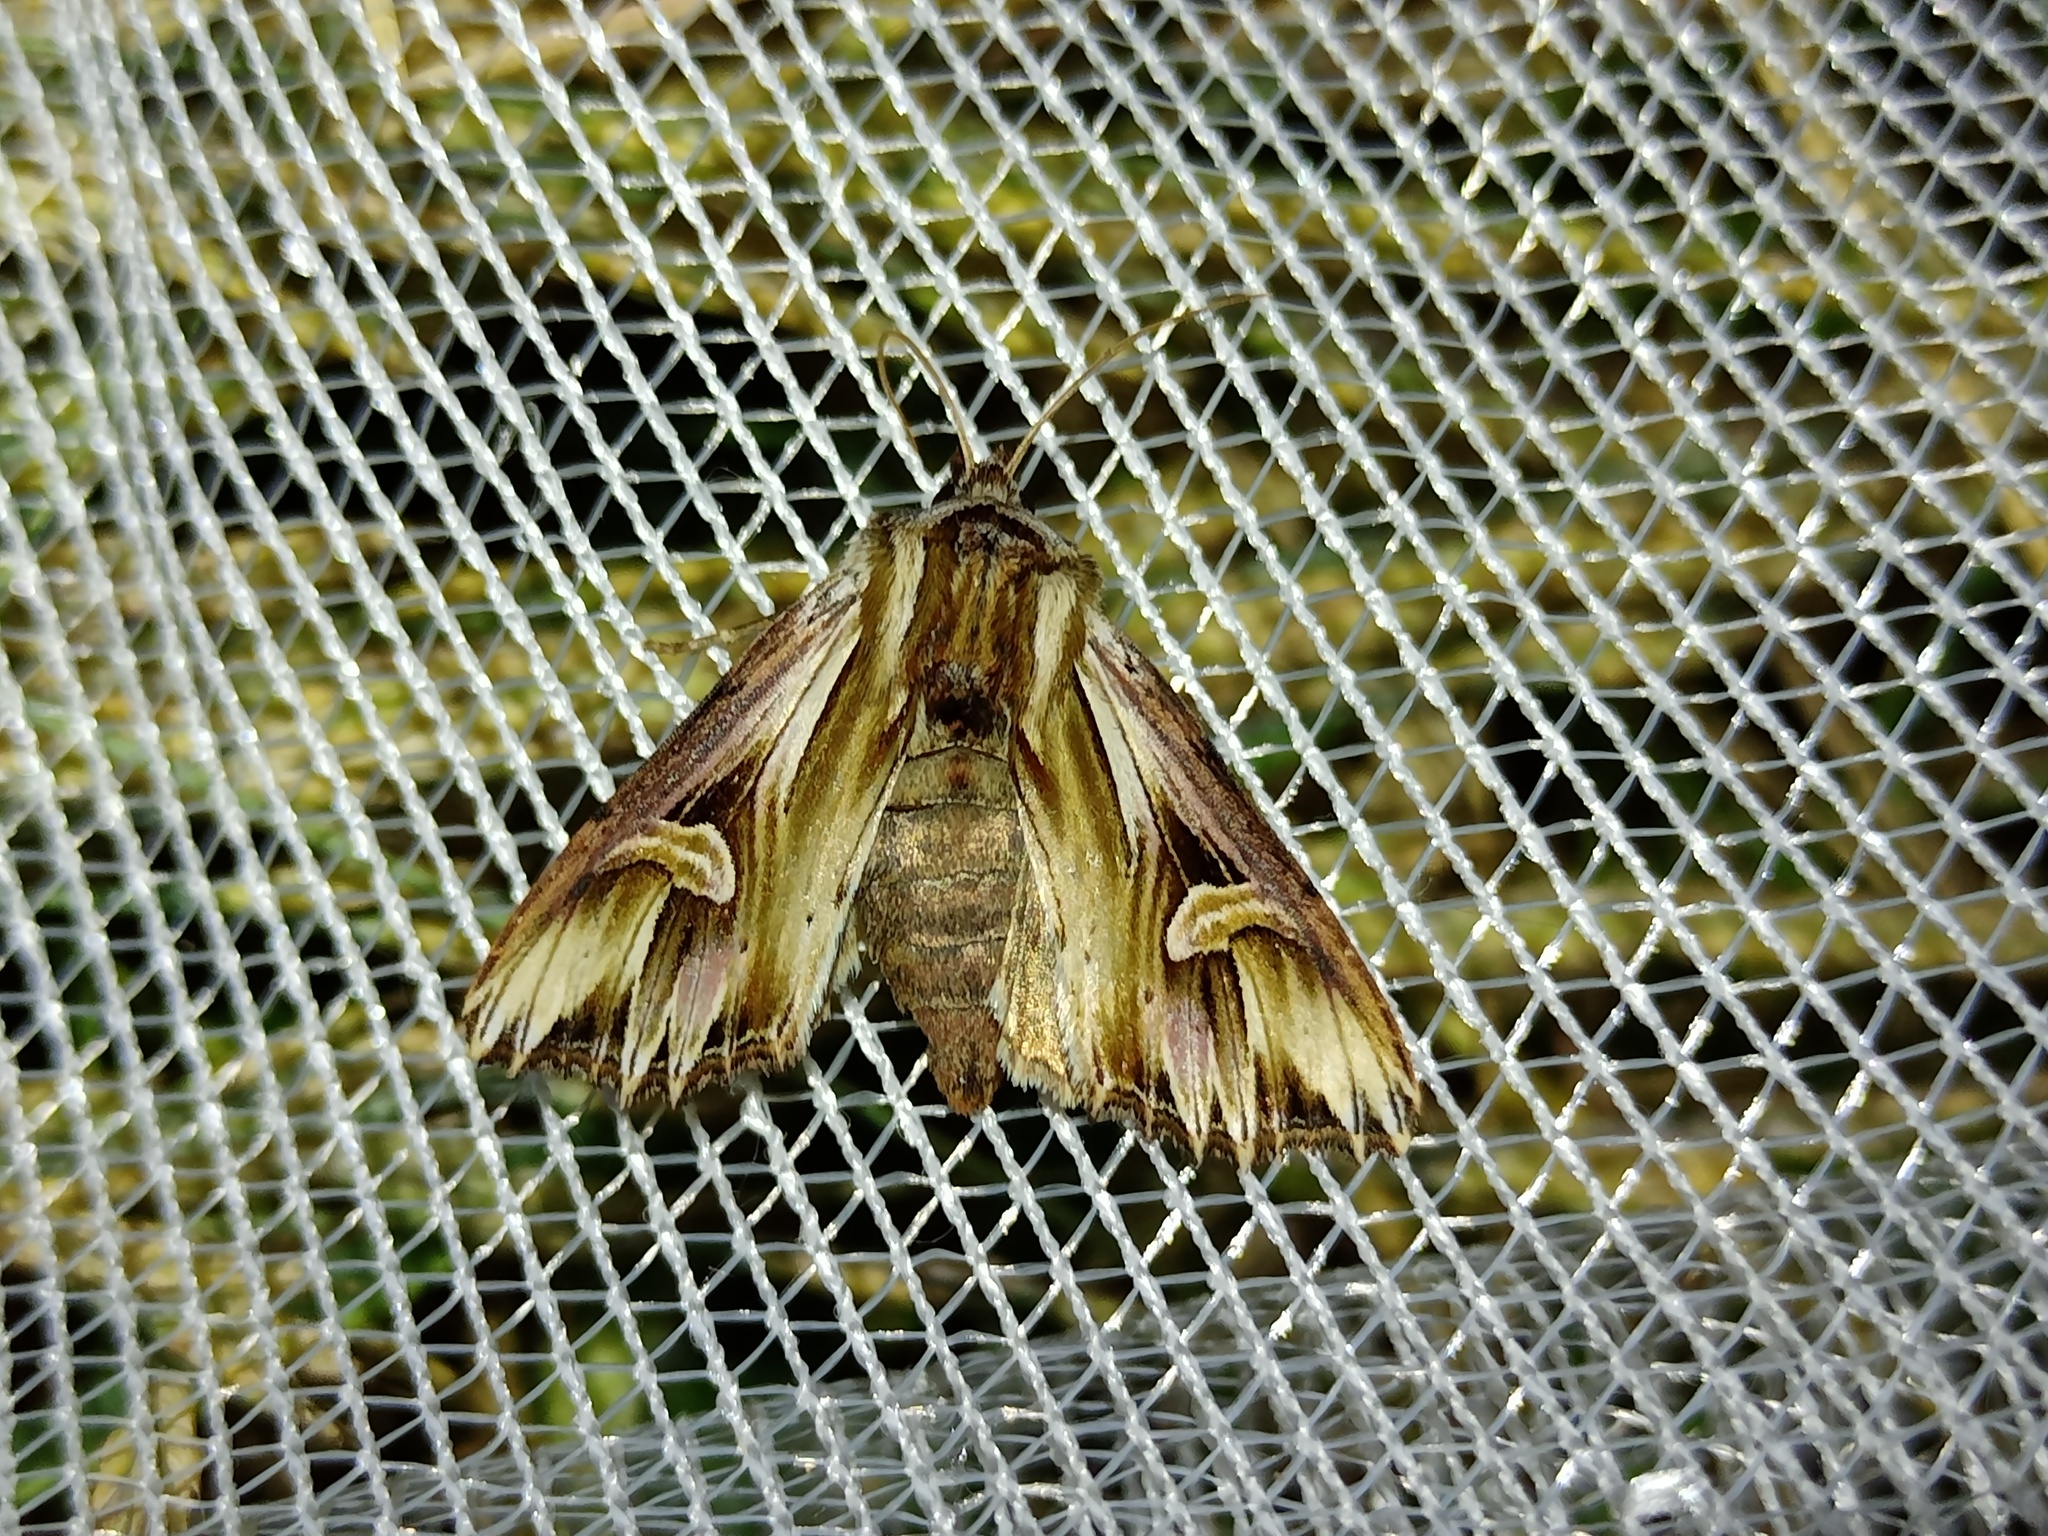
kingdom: Animalia
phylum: Arthropoda
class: Insecta
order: Lepidoptera
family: Noctuidae
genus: Actinotia
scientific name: Actinotia polyodon
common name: Purple cloud
